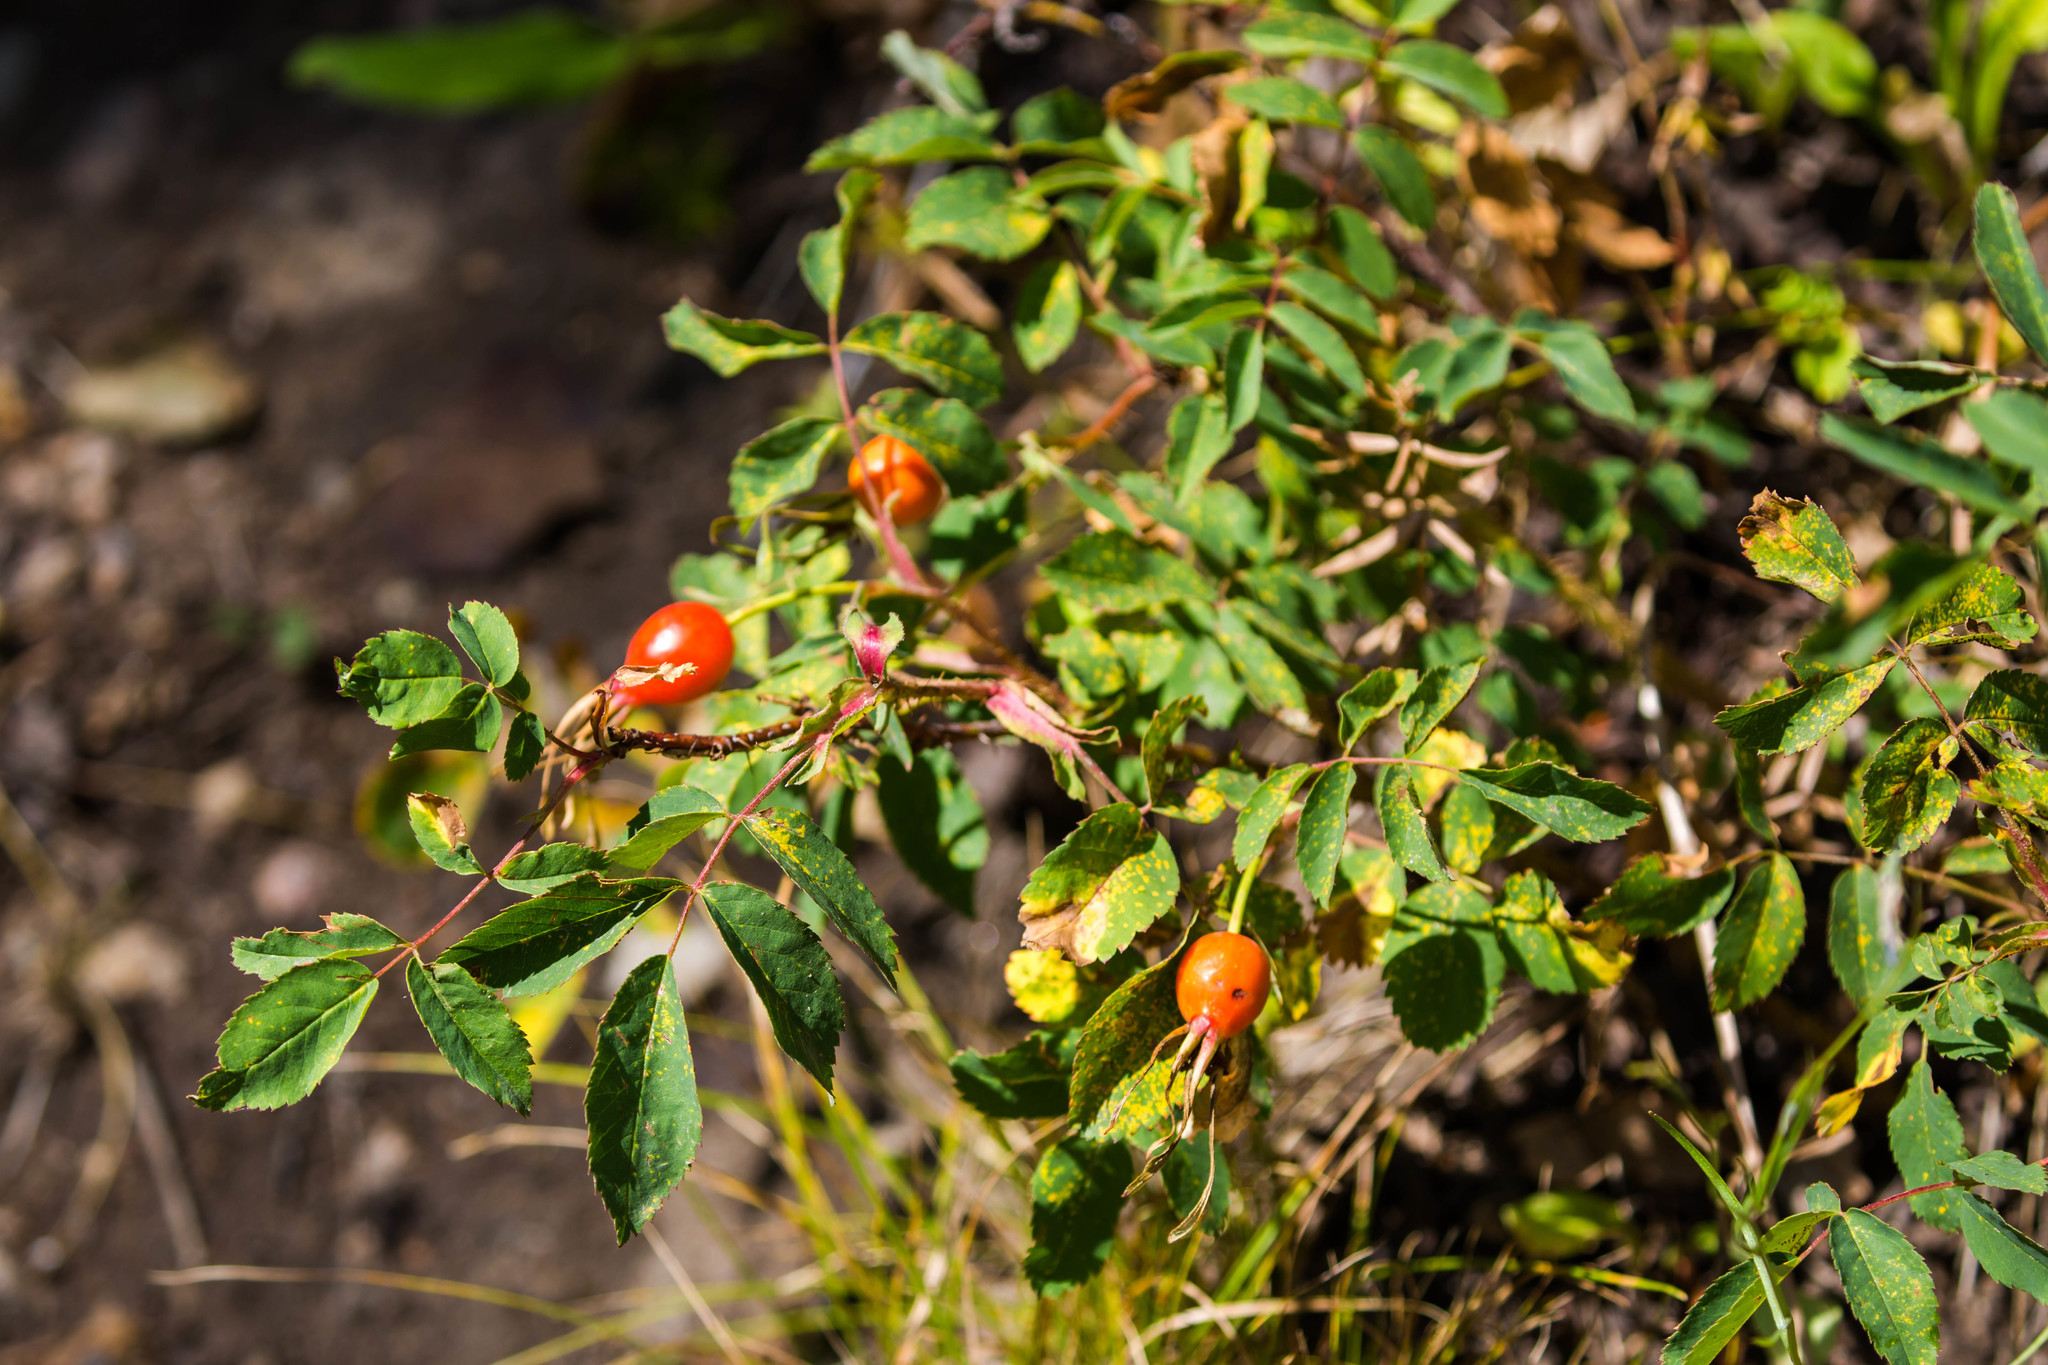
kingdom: Plantae
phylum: Tracheophyta
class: Magnoliopsida
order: Rosales
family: Rosaceae
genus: Rosa
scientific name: Rosa woodsii
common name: Woods's rose
